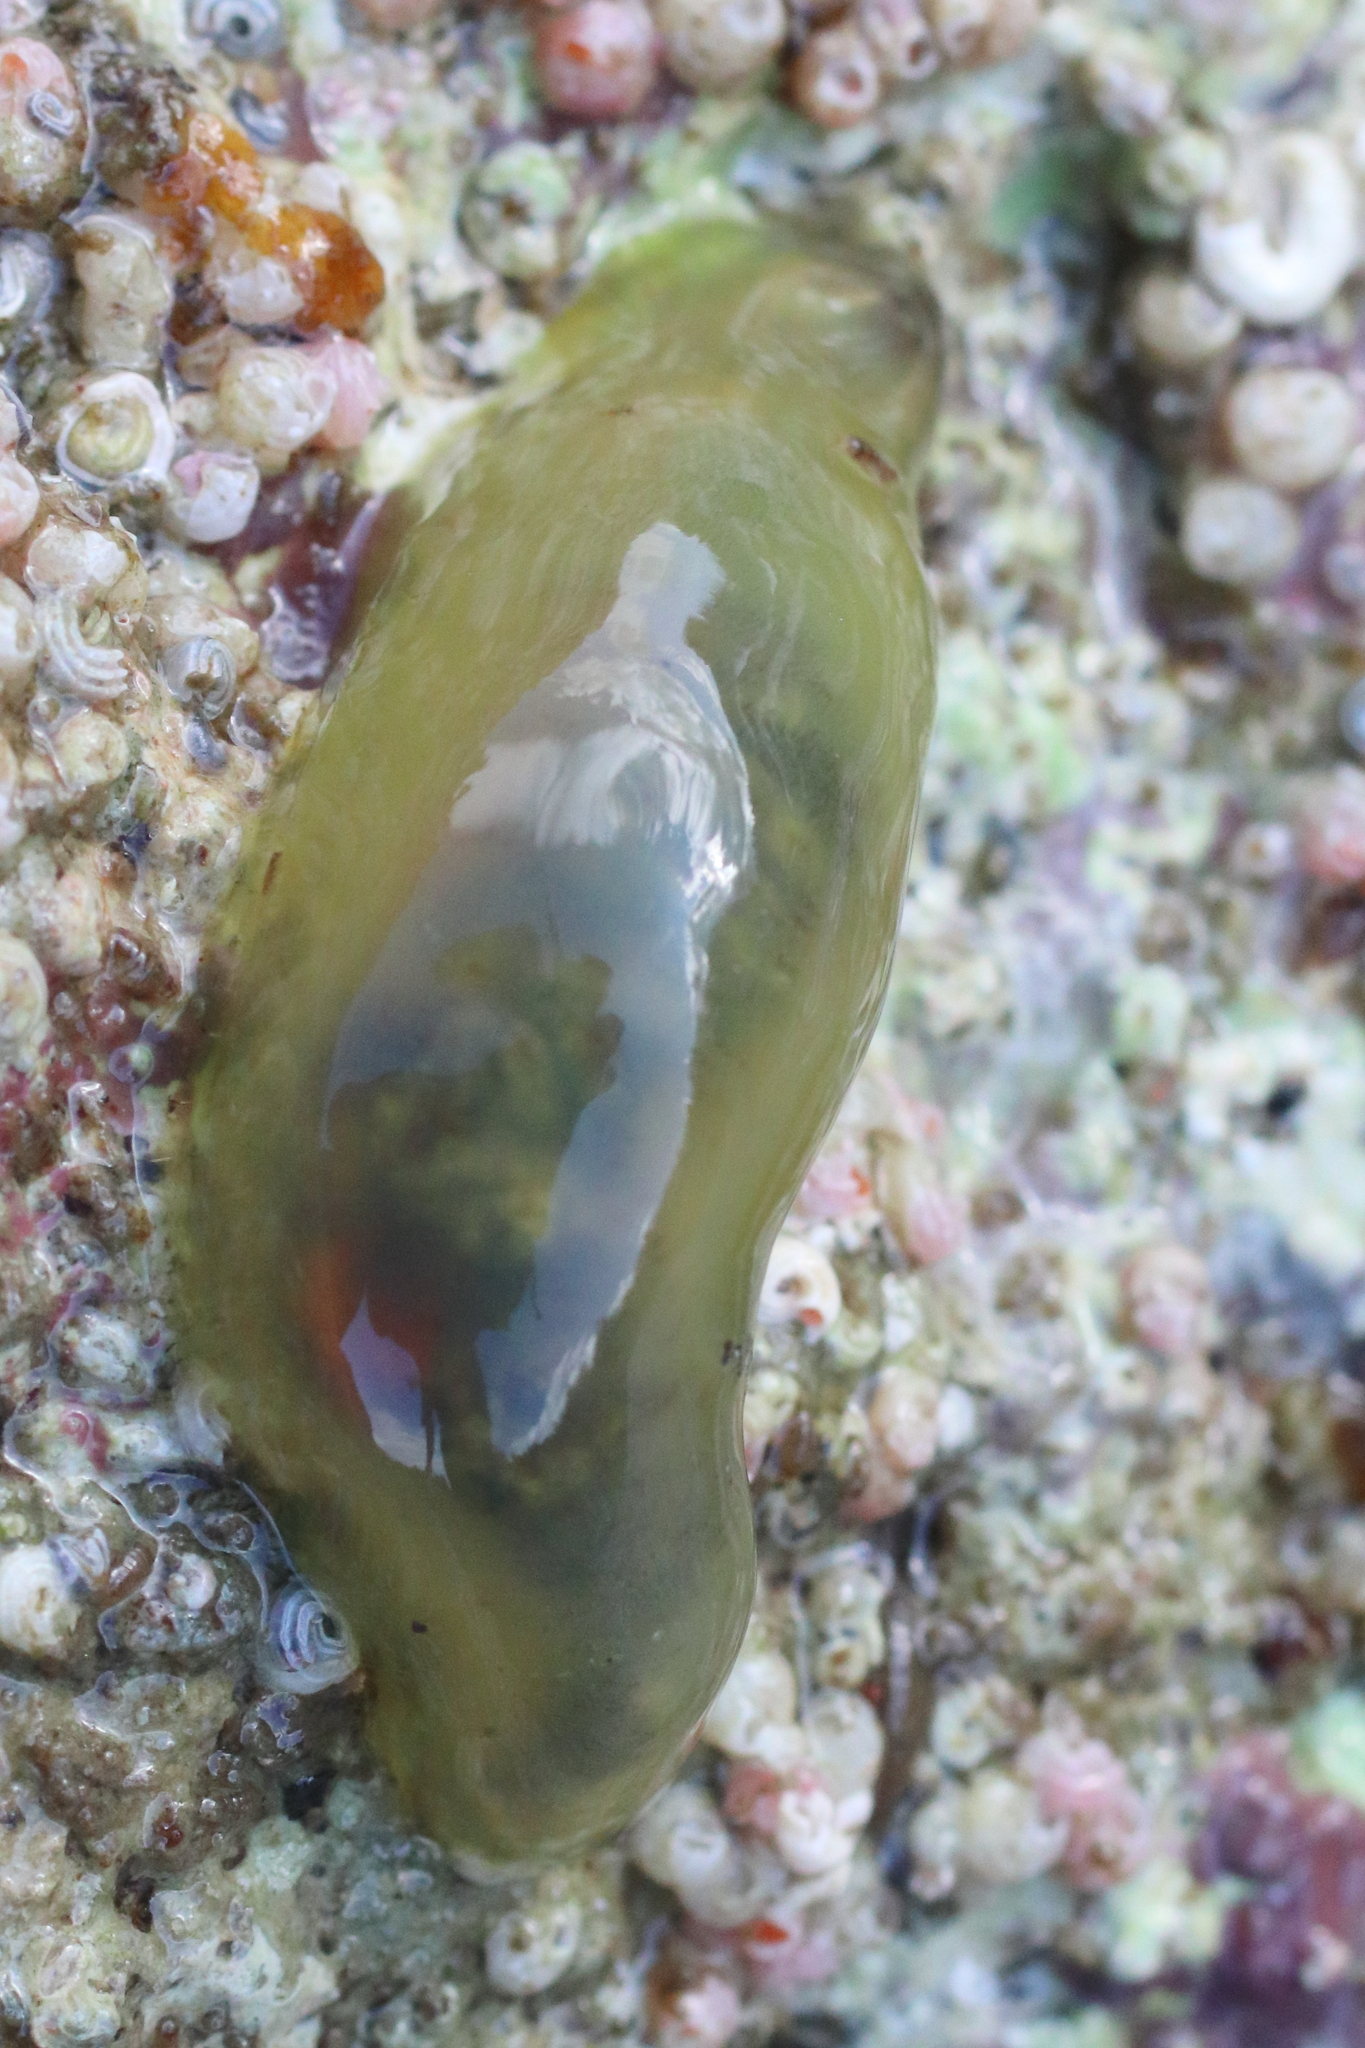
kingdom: Animalia
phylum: Annelida
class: Polychaeta
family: Flabelligeridae
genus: Flabelligera
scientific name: Flabelligera infundibularis
